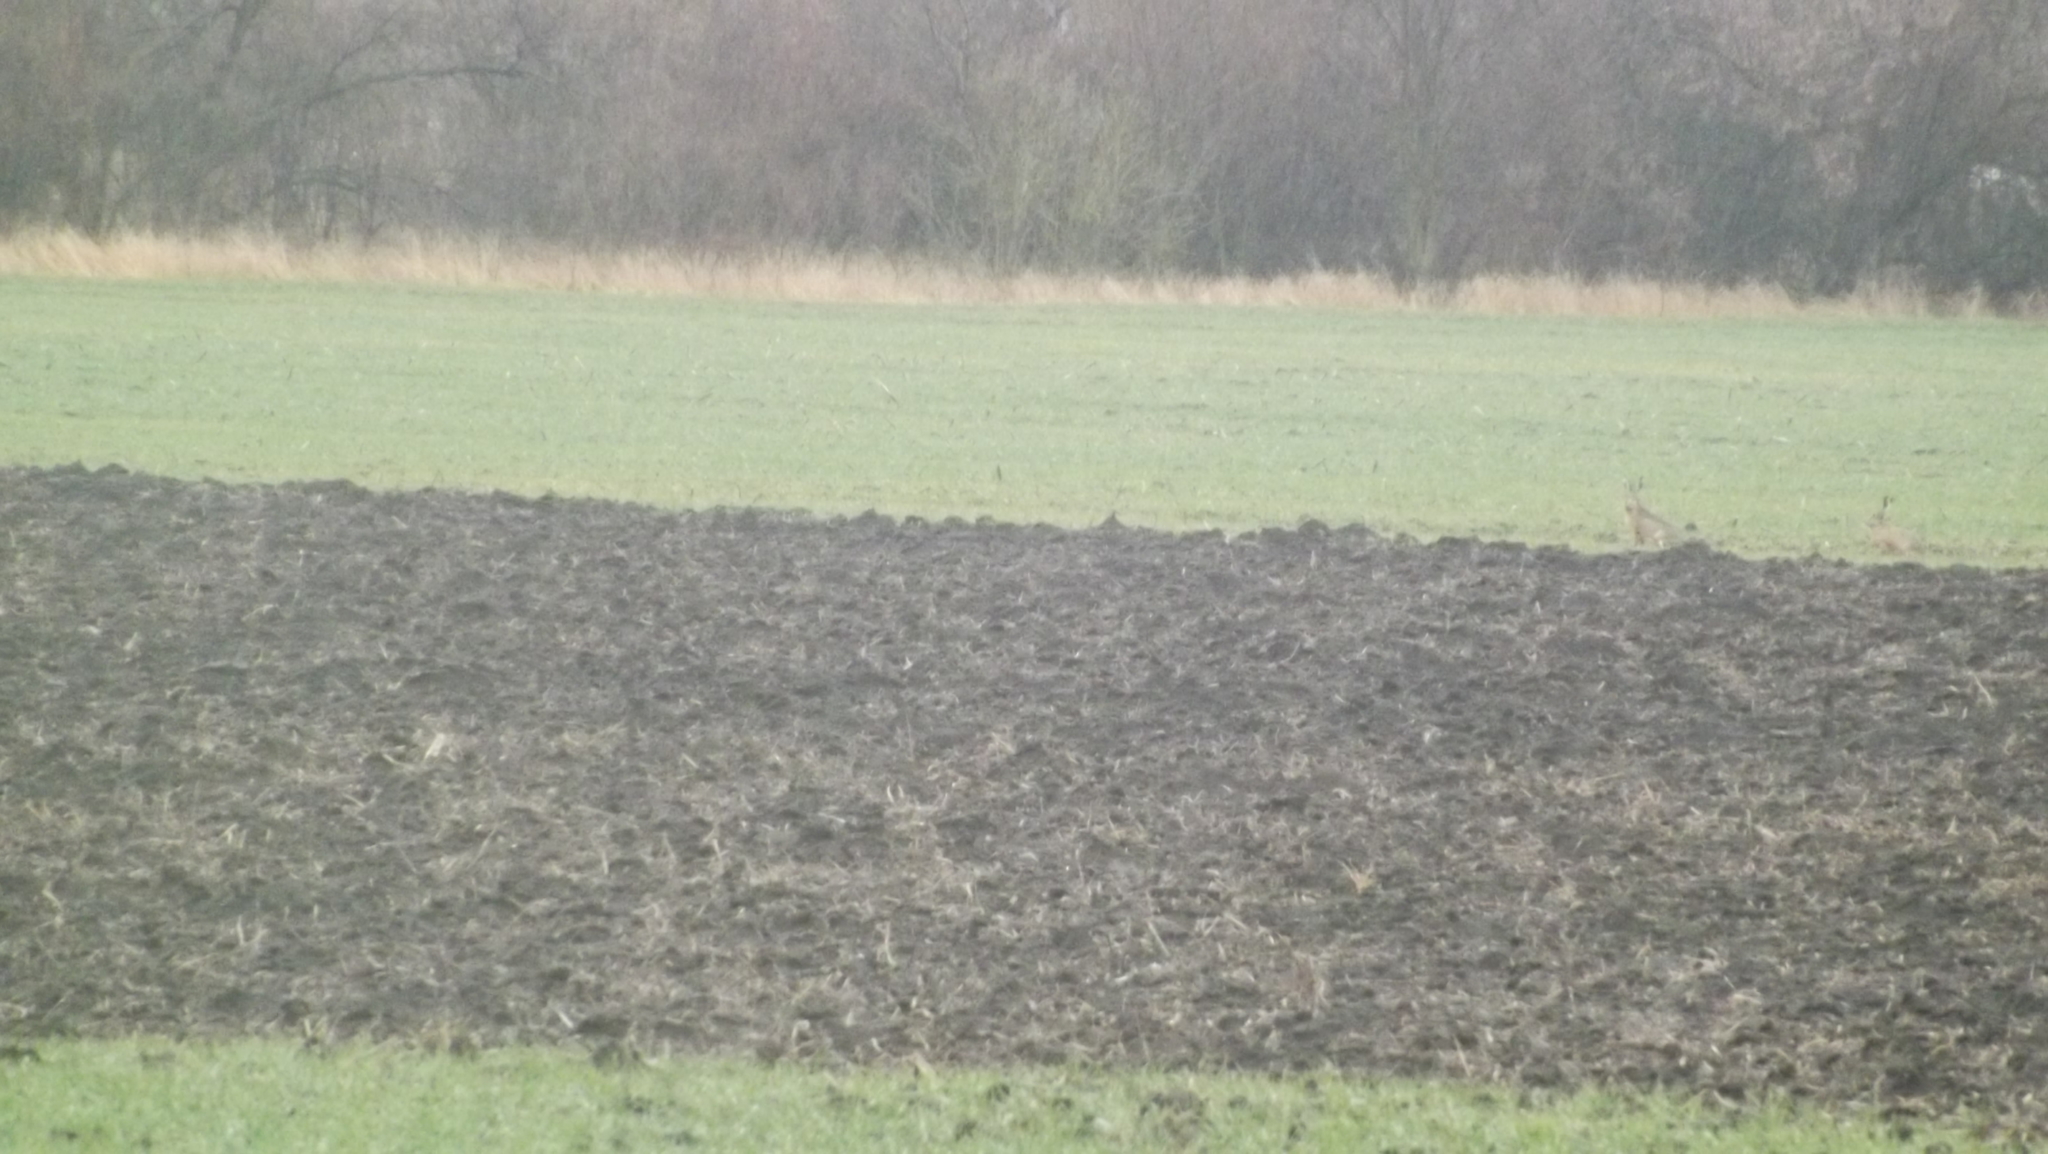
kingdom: Animalia
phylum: Chordata
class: Mammalia
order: Lagomorpha
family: Leporidae
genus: Lepus
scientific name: Lepus europaeus
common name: European hare
